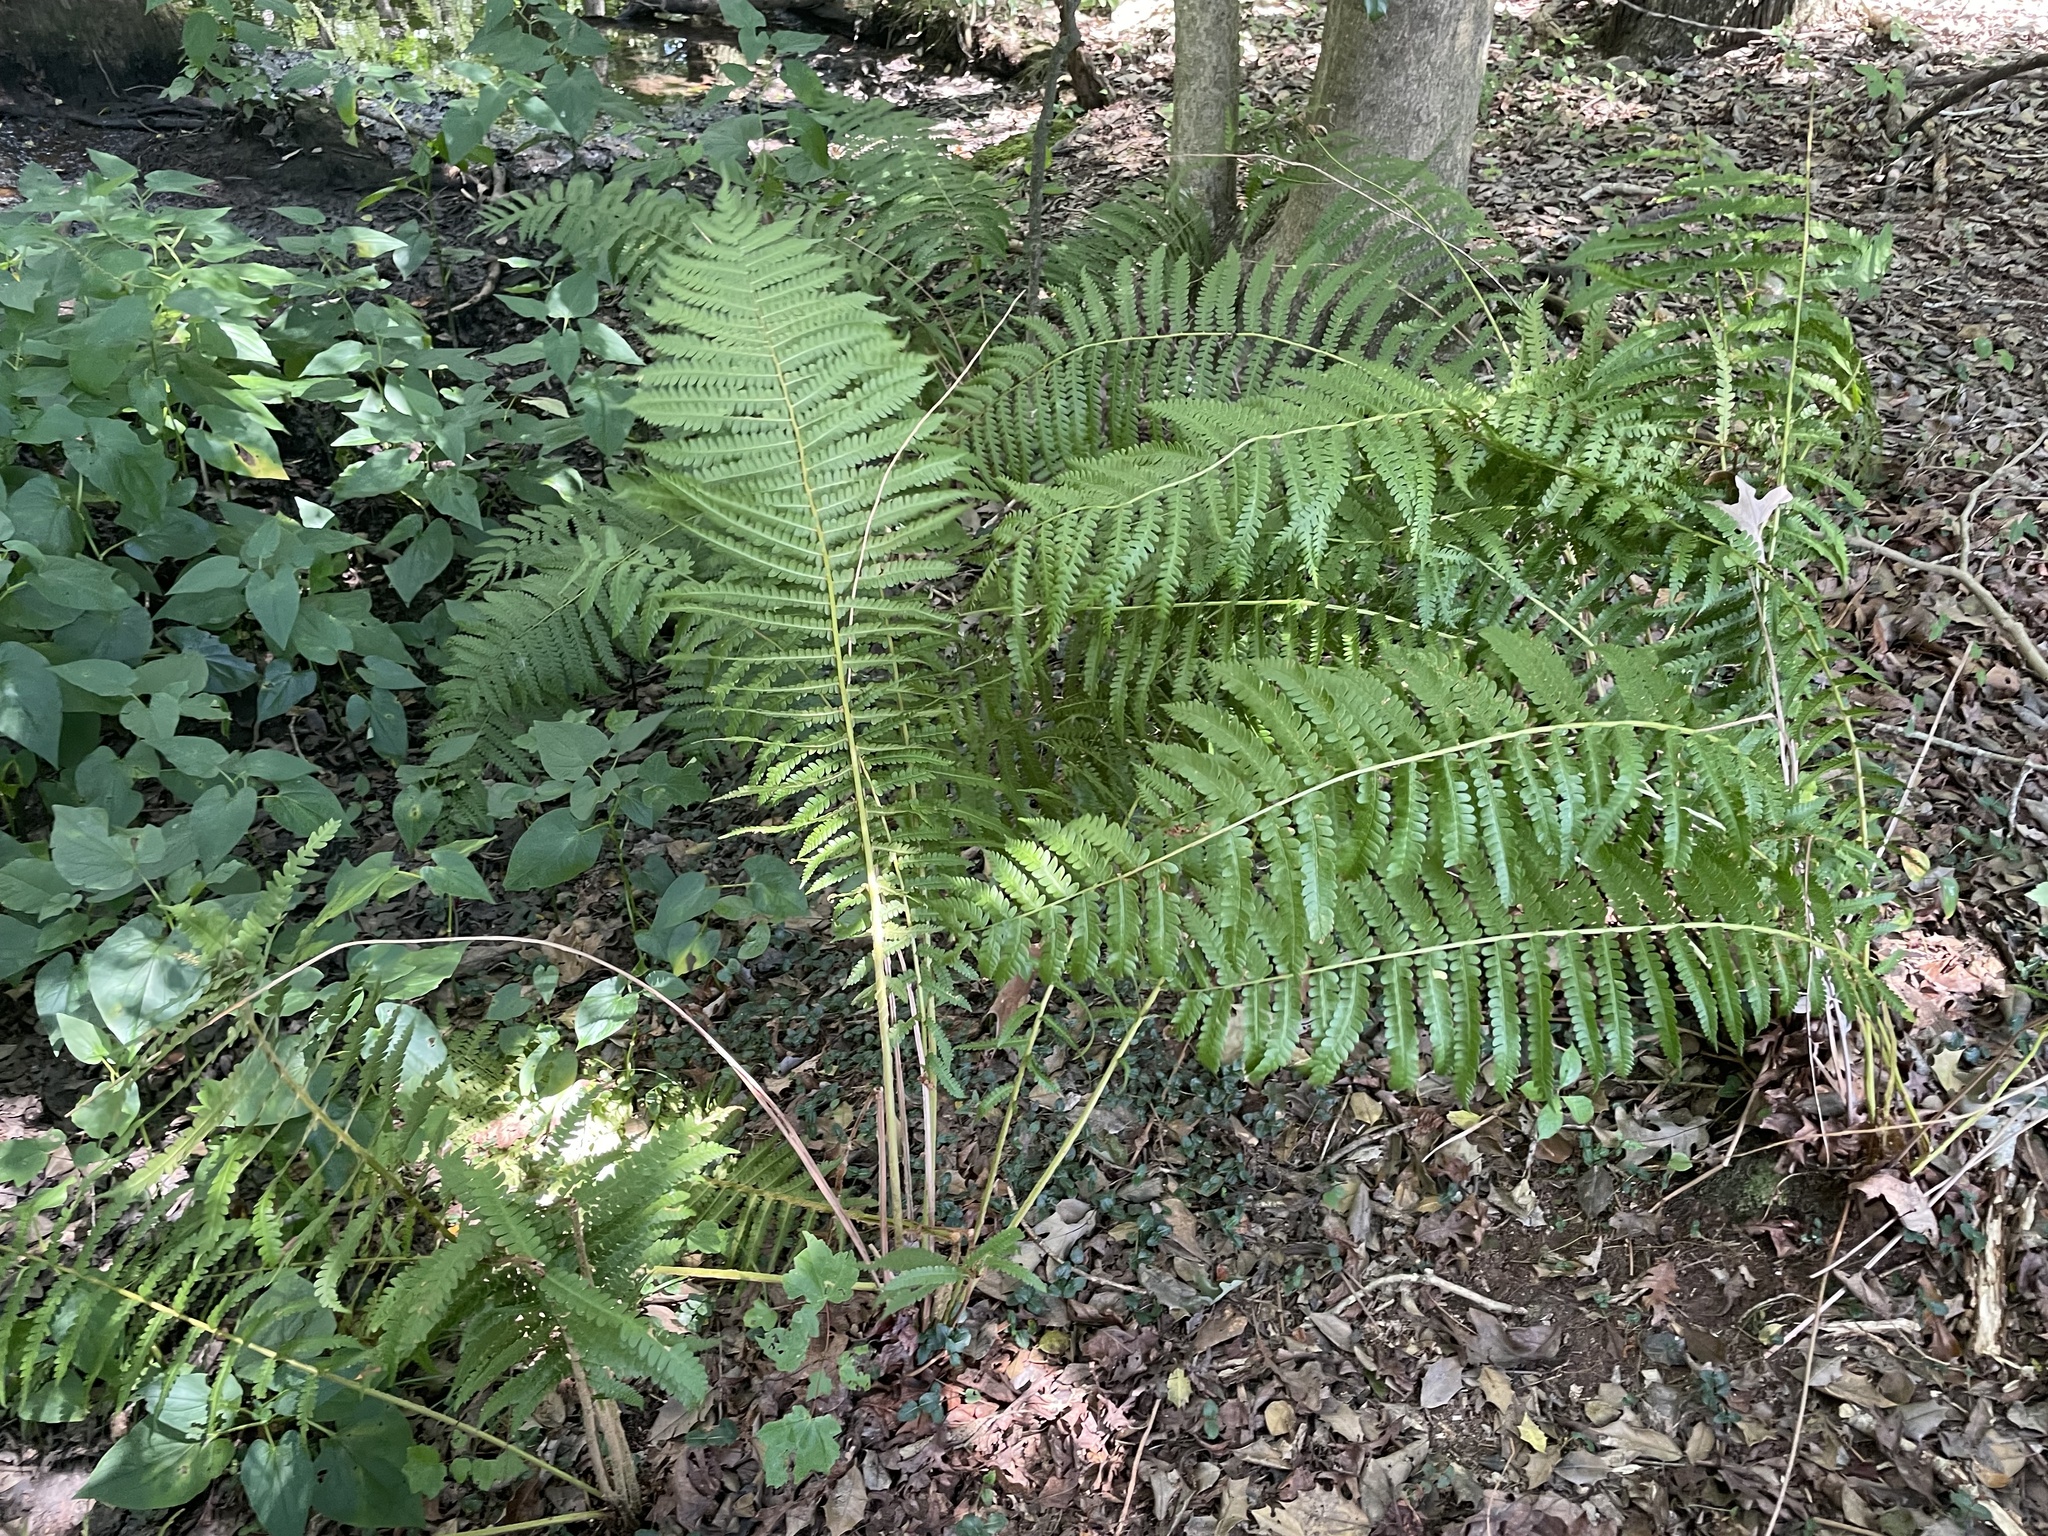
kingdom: Plantae
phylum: Tracheophyta
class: Polypodiopsida
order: Osmundales
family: Osmundaceae
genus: Osmundastrum
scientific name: Osmundastrum cinnamomeum
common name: Cinnamon fern
